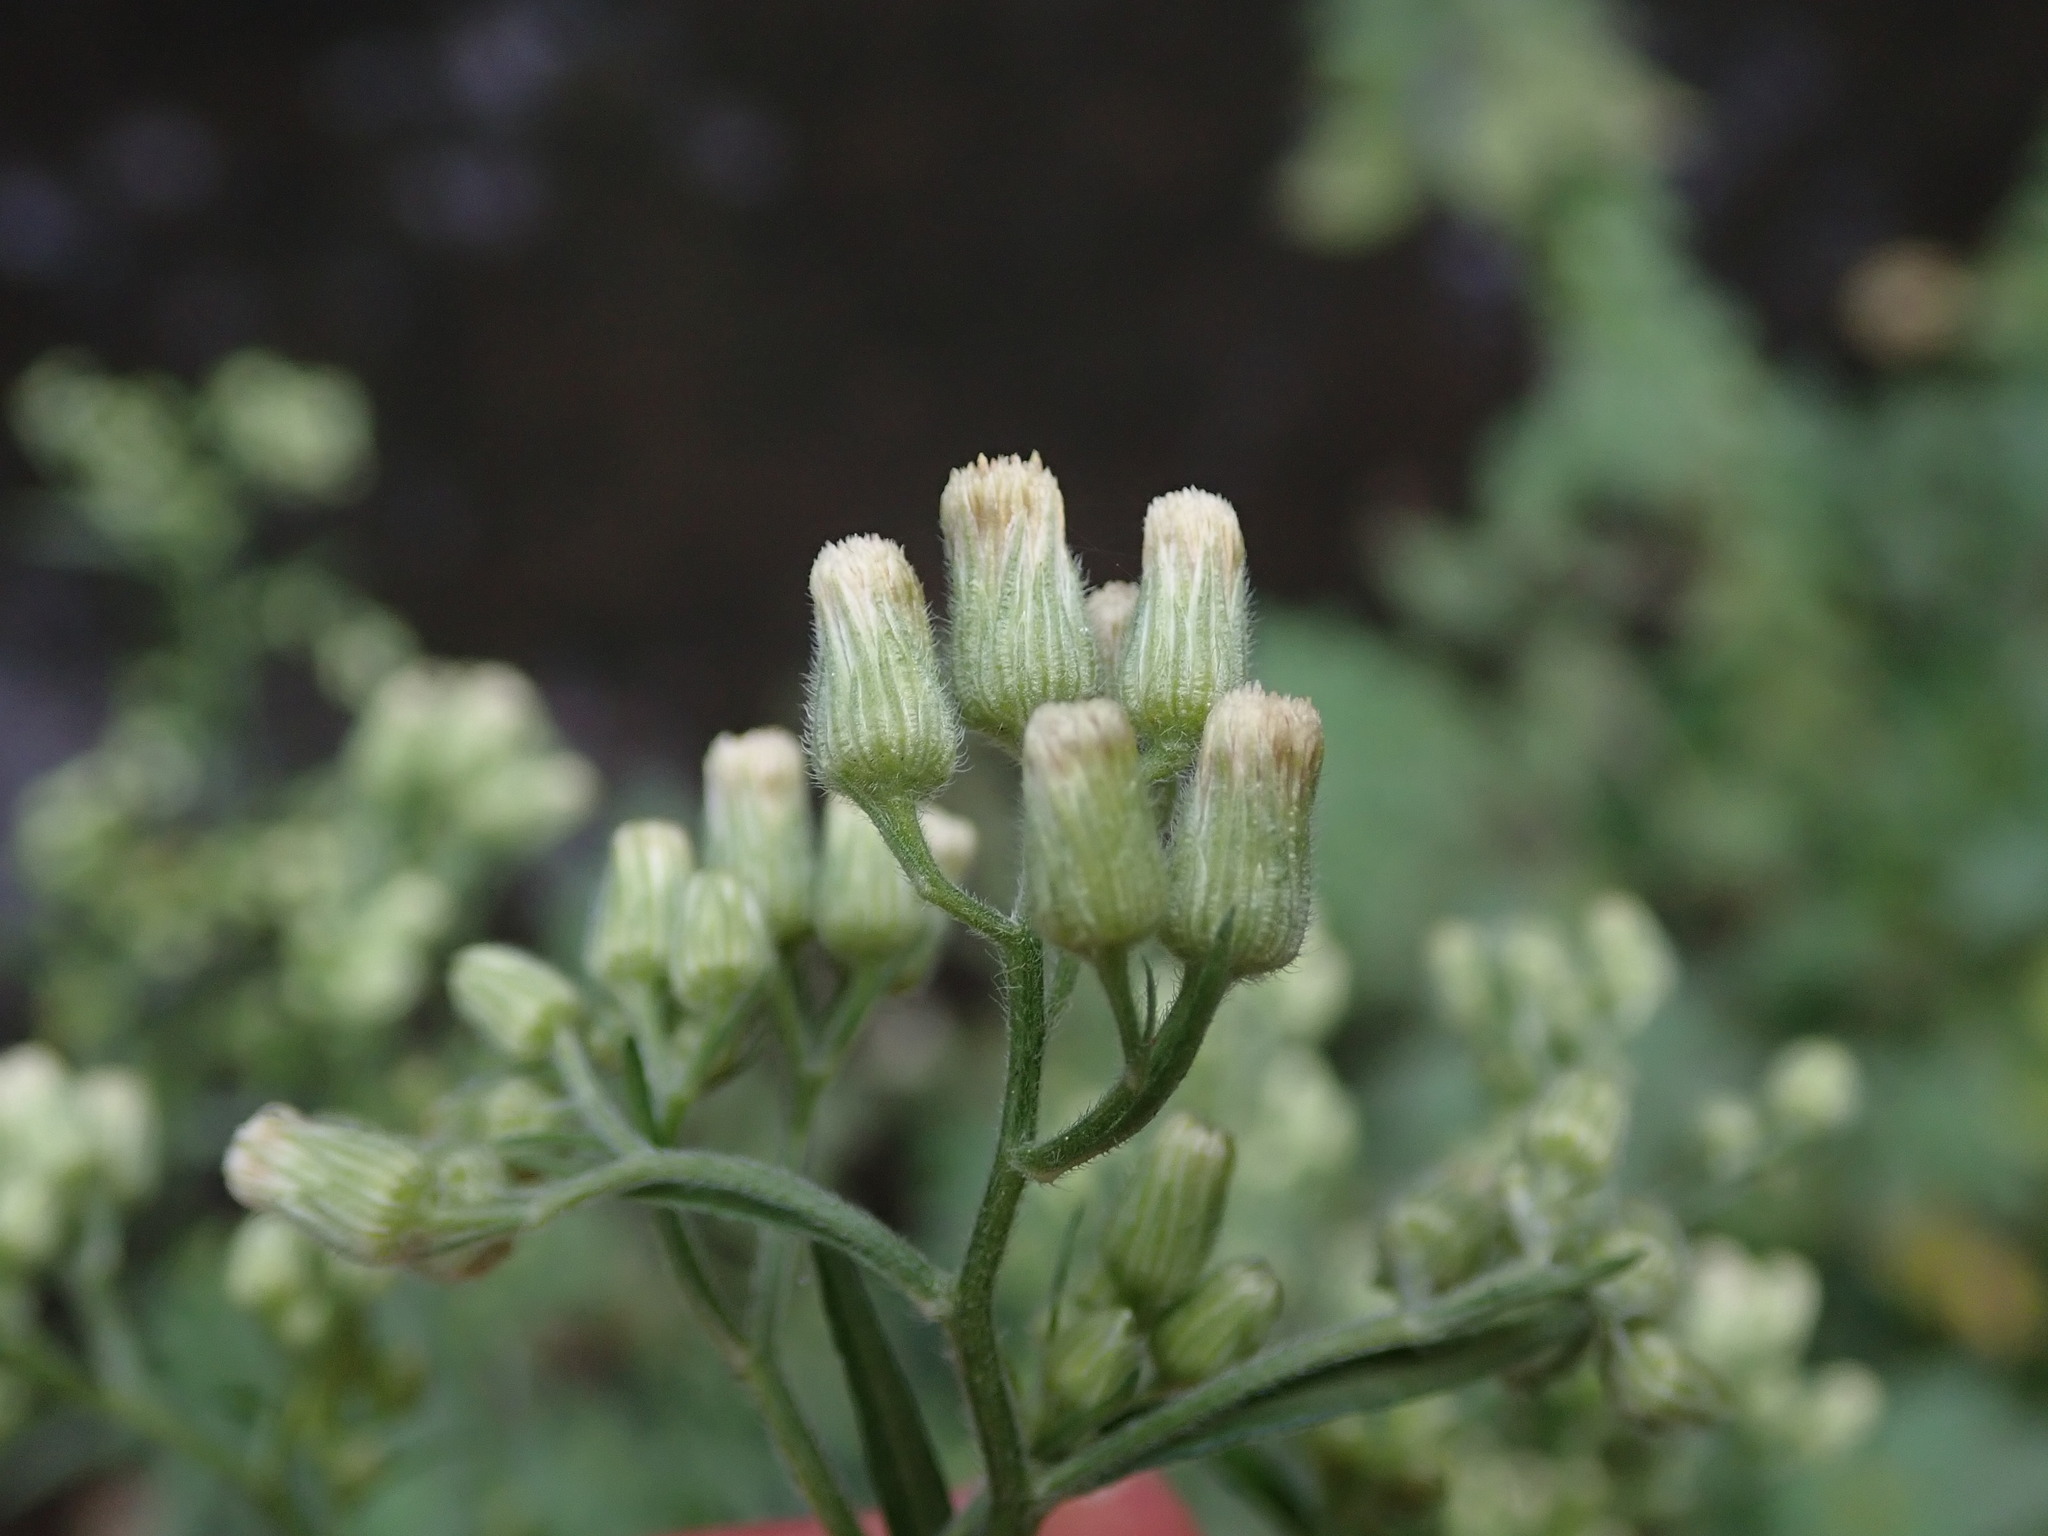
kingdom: Plantae
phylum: Tracheophyta
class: Magnoliopsida
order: Asterales
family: Asteraceae
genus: Erigeron
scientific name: Erigeron sumatrensis
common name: Daisy
